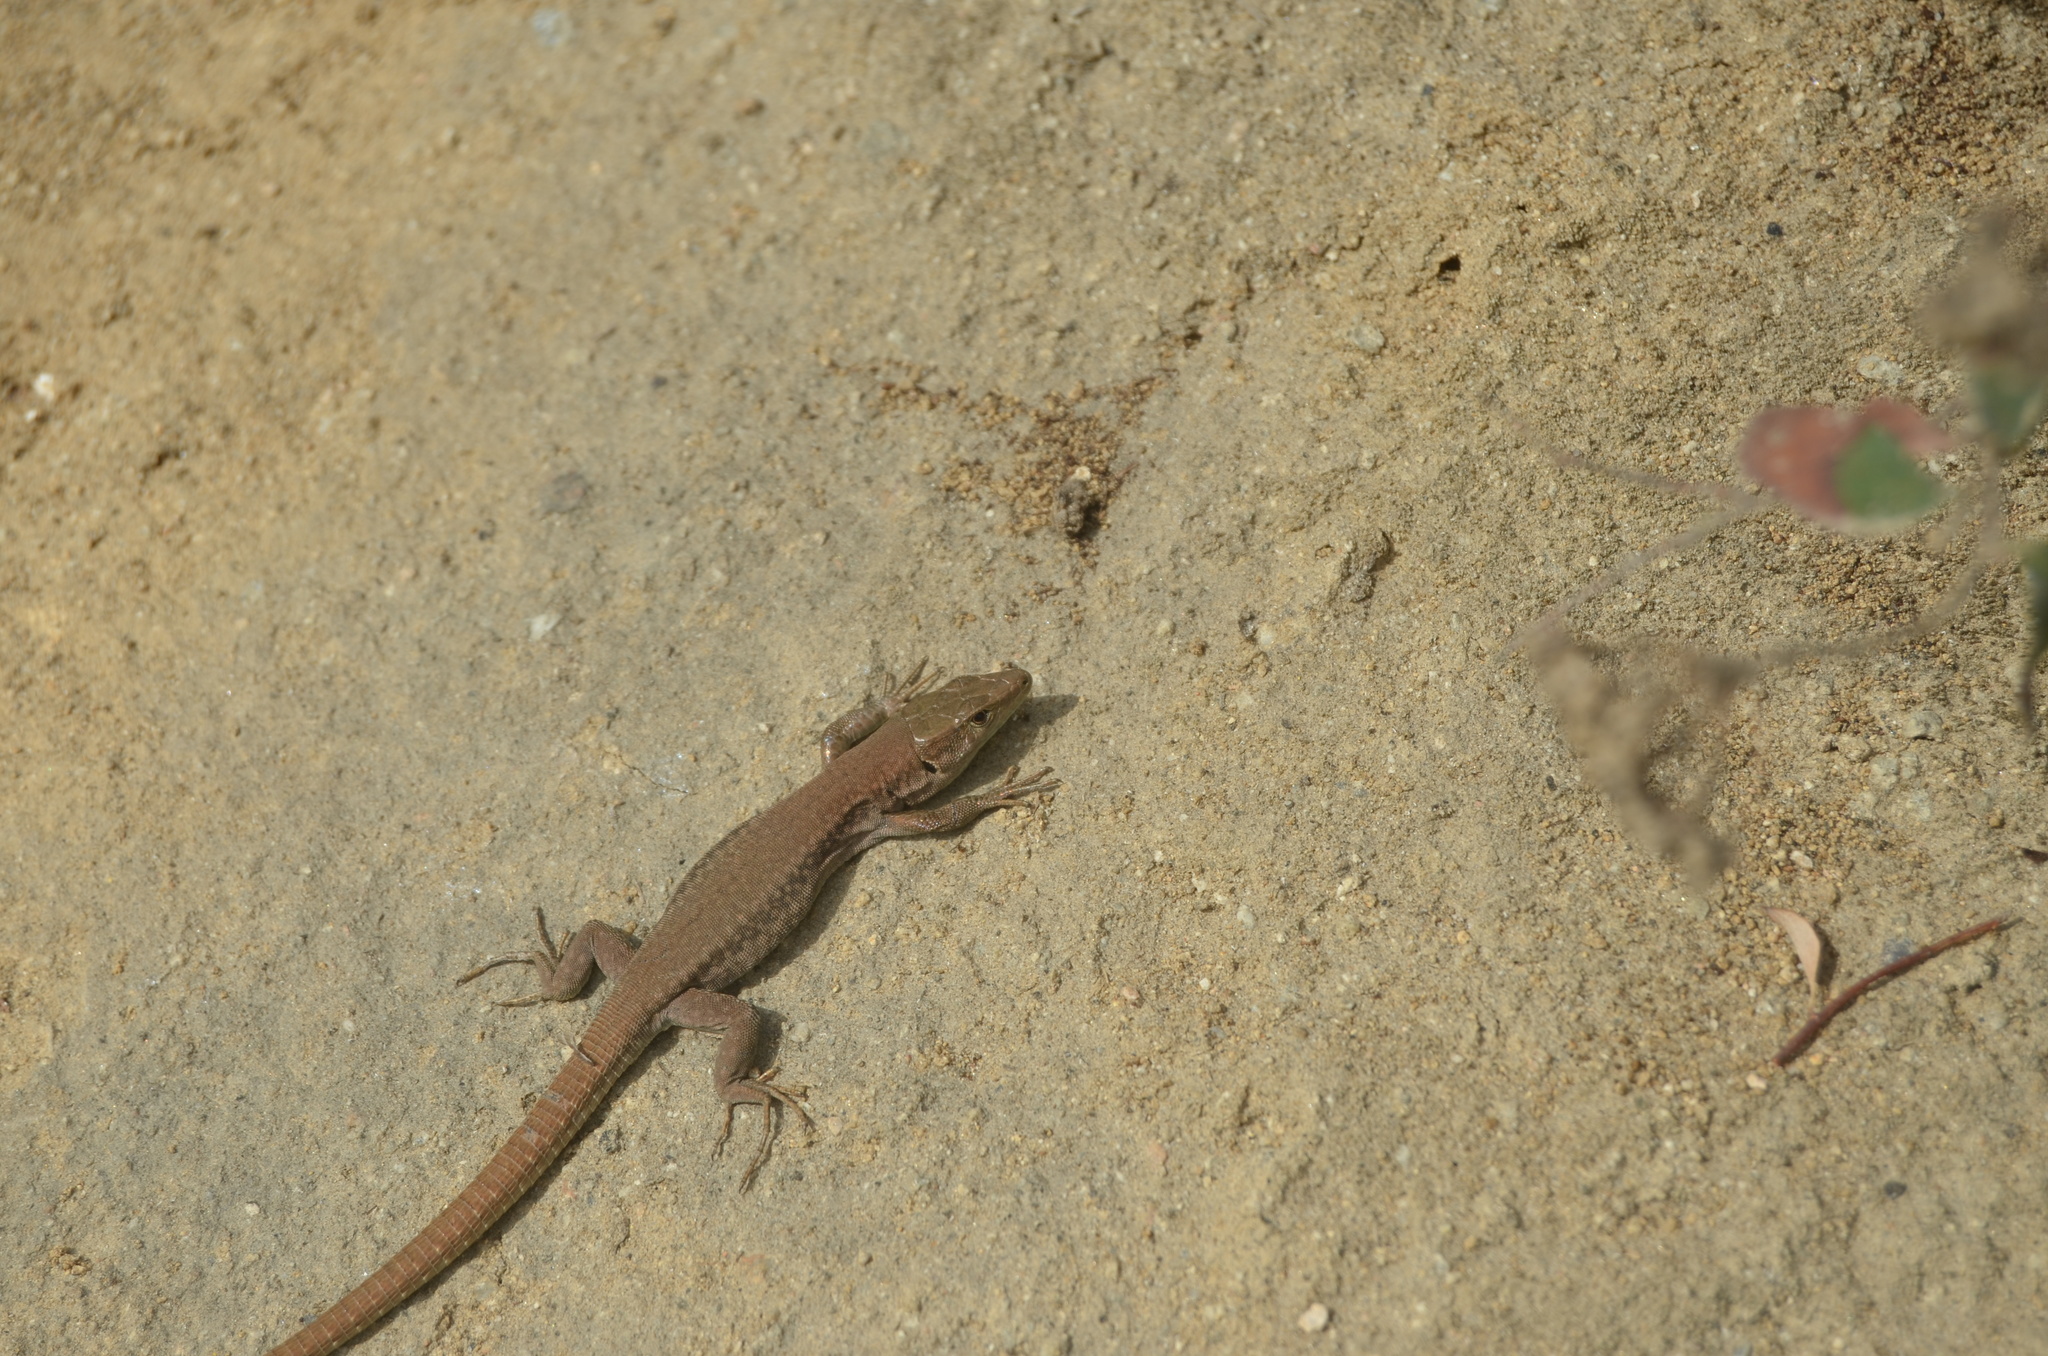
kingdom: Animalia
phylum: Chordata
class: Squamata
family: Lacertidae
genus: Podarcis
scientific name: Podarcis liolepis
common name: Catalonian wall lizard
